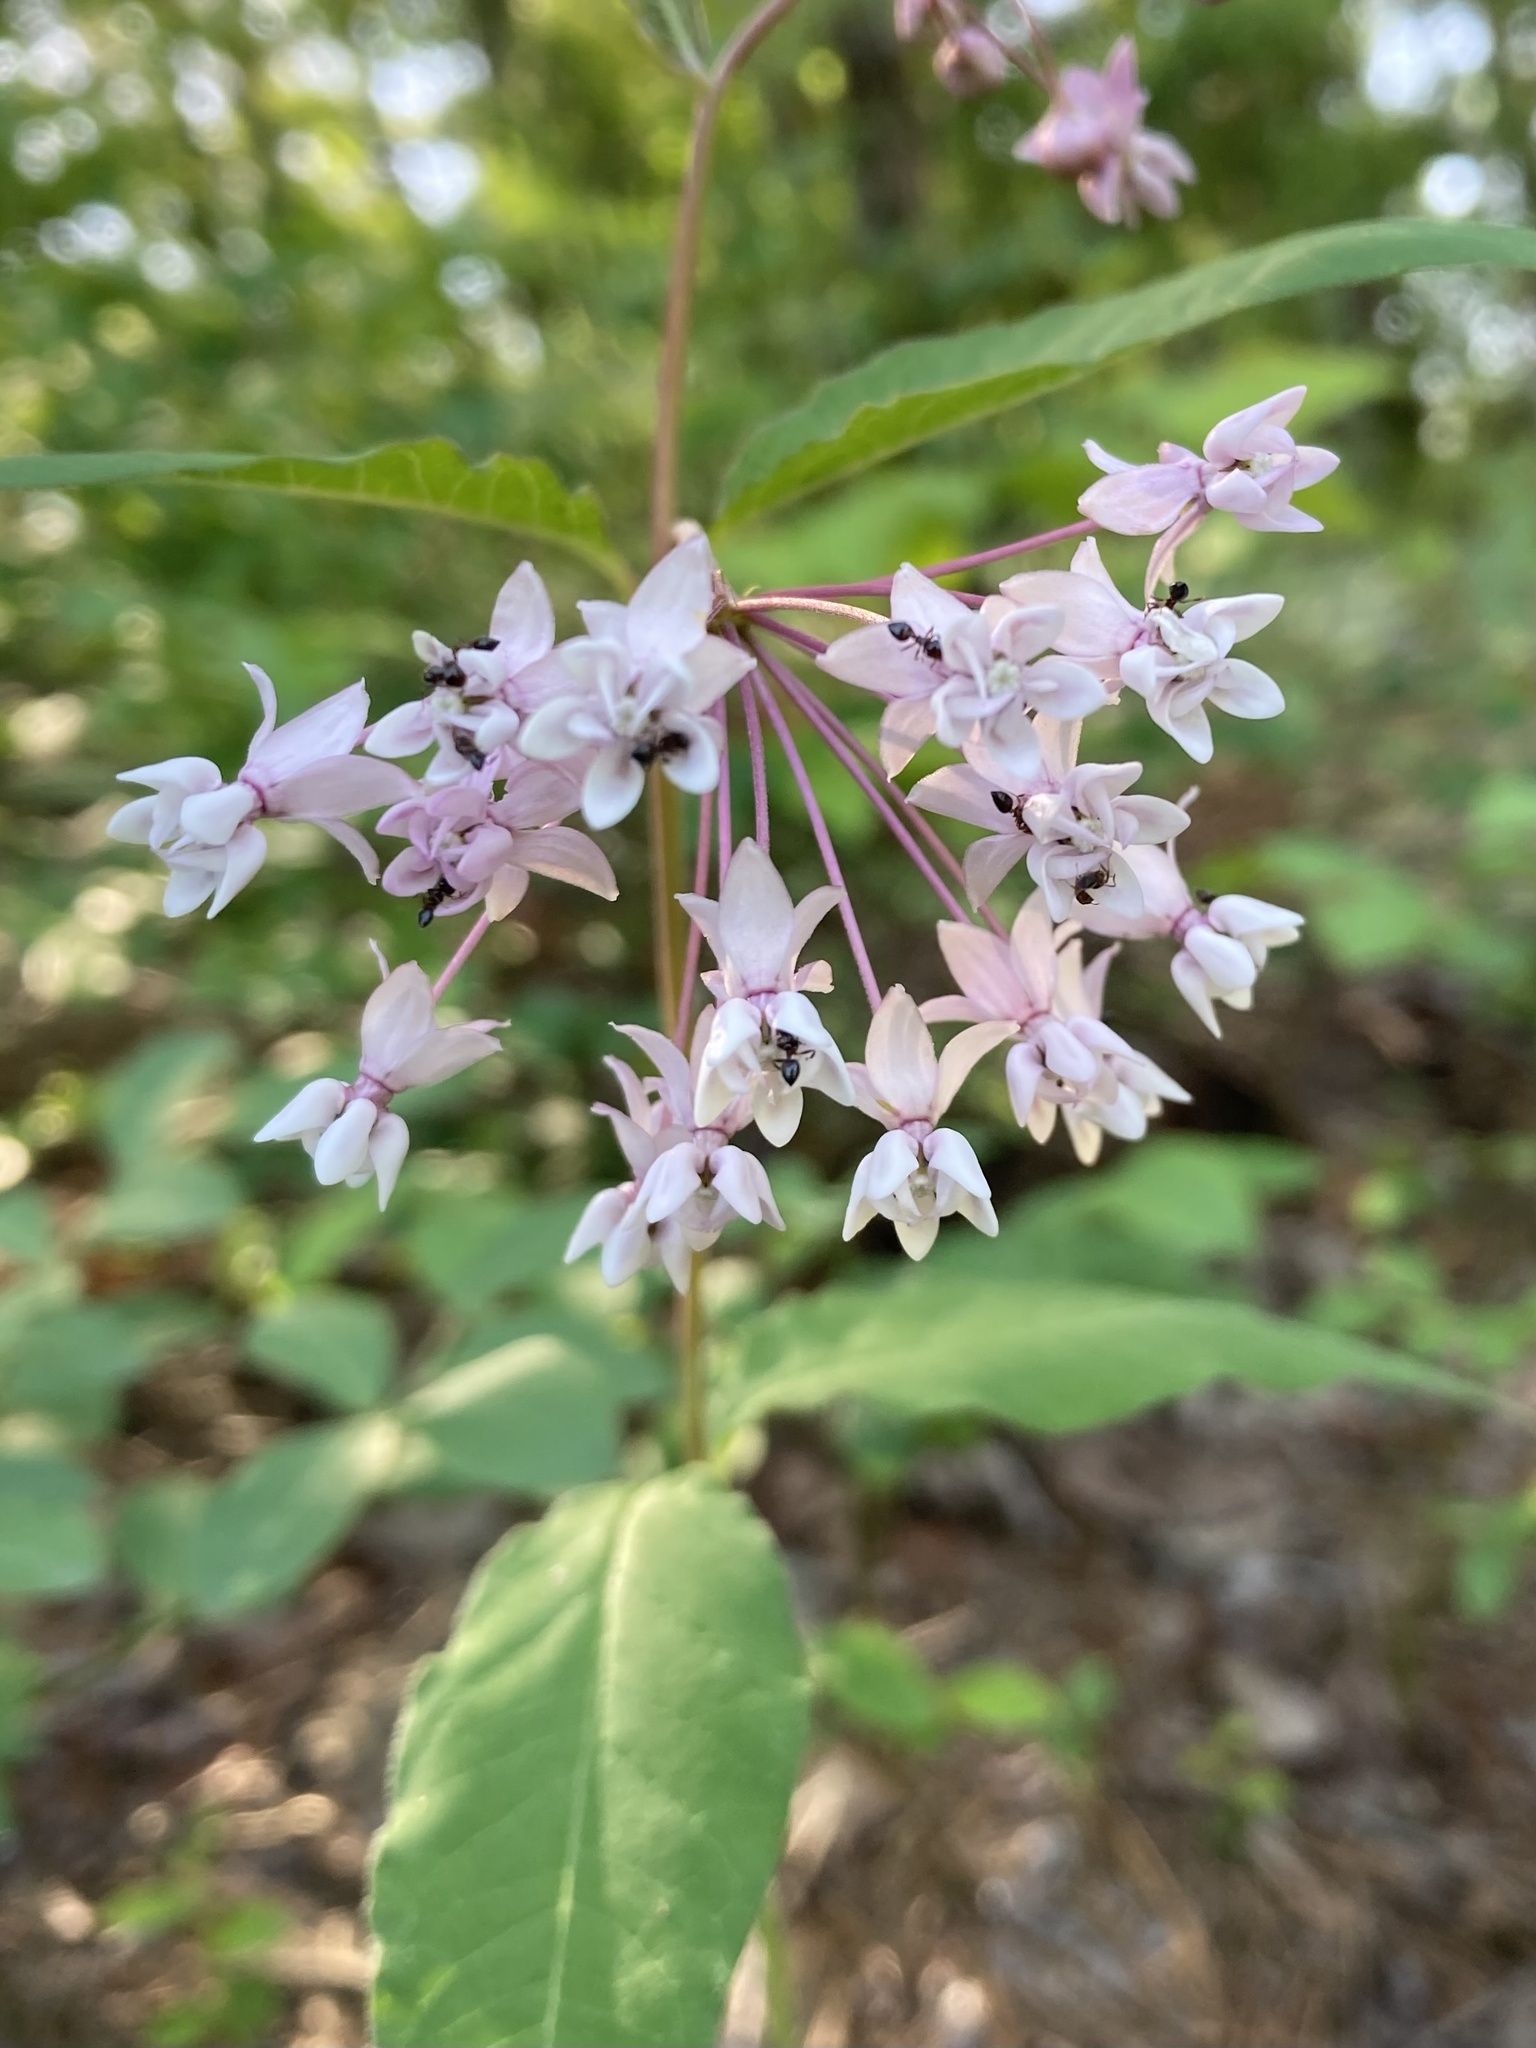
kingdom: Plantae
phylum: Tracheophyta
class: Magnoliopsida
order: Gentianales
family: Apocynaceae
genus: Asclepias
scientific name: Asclepias quadrifolia
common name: Whorled milkweed
